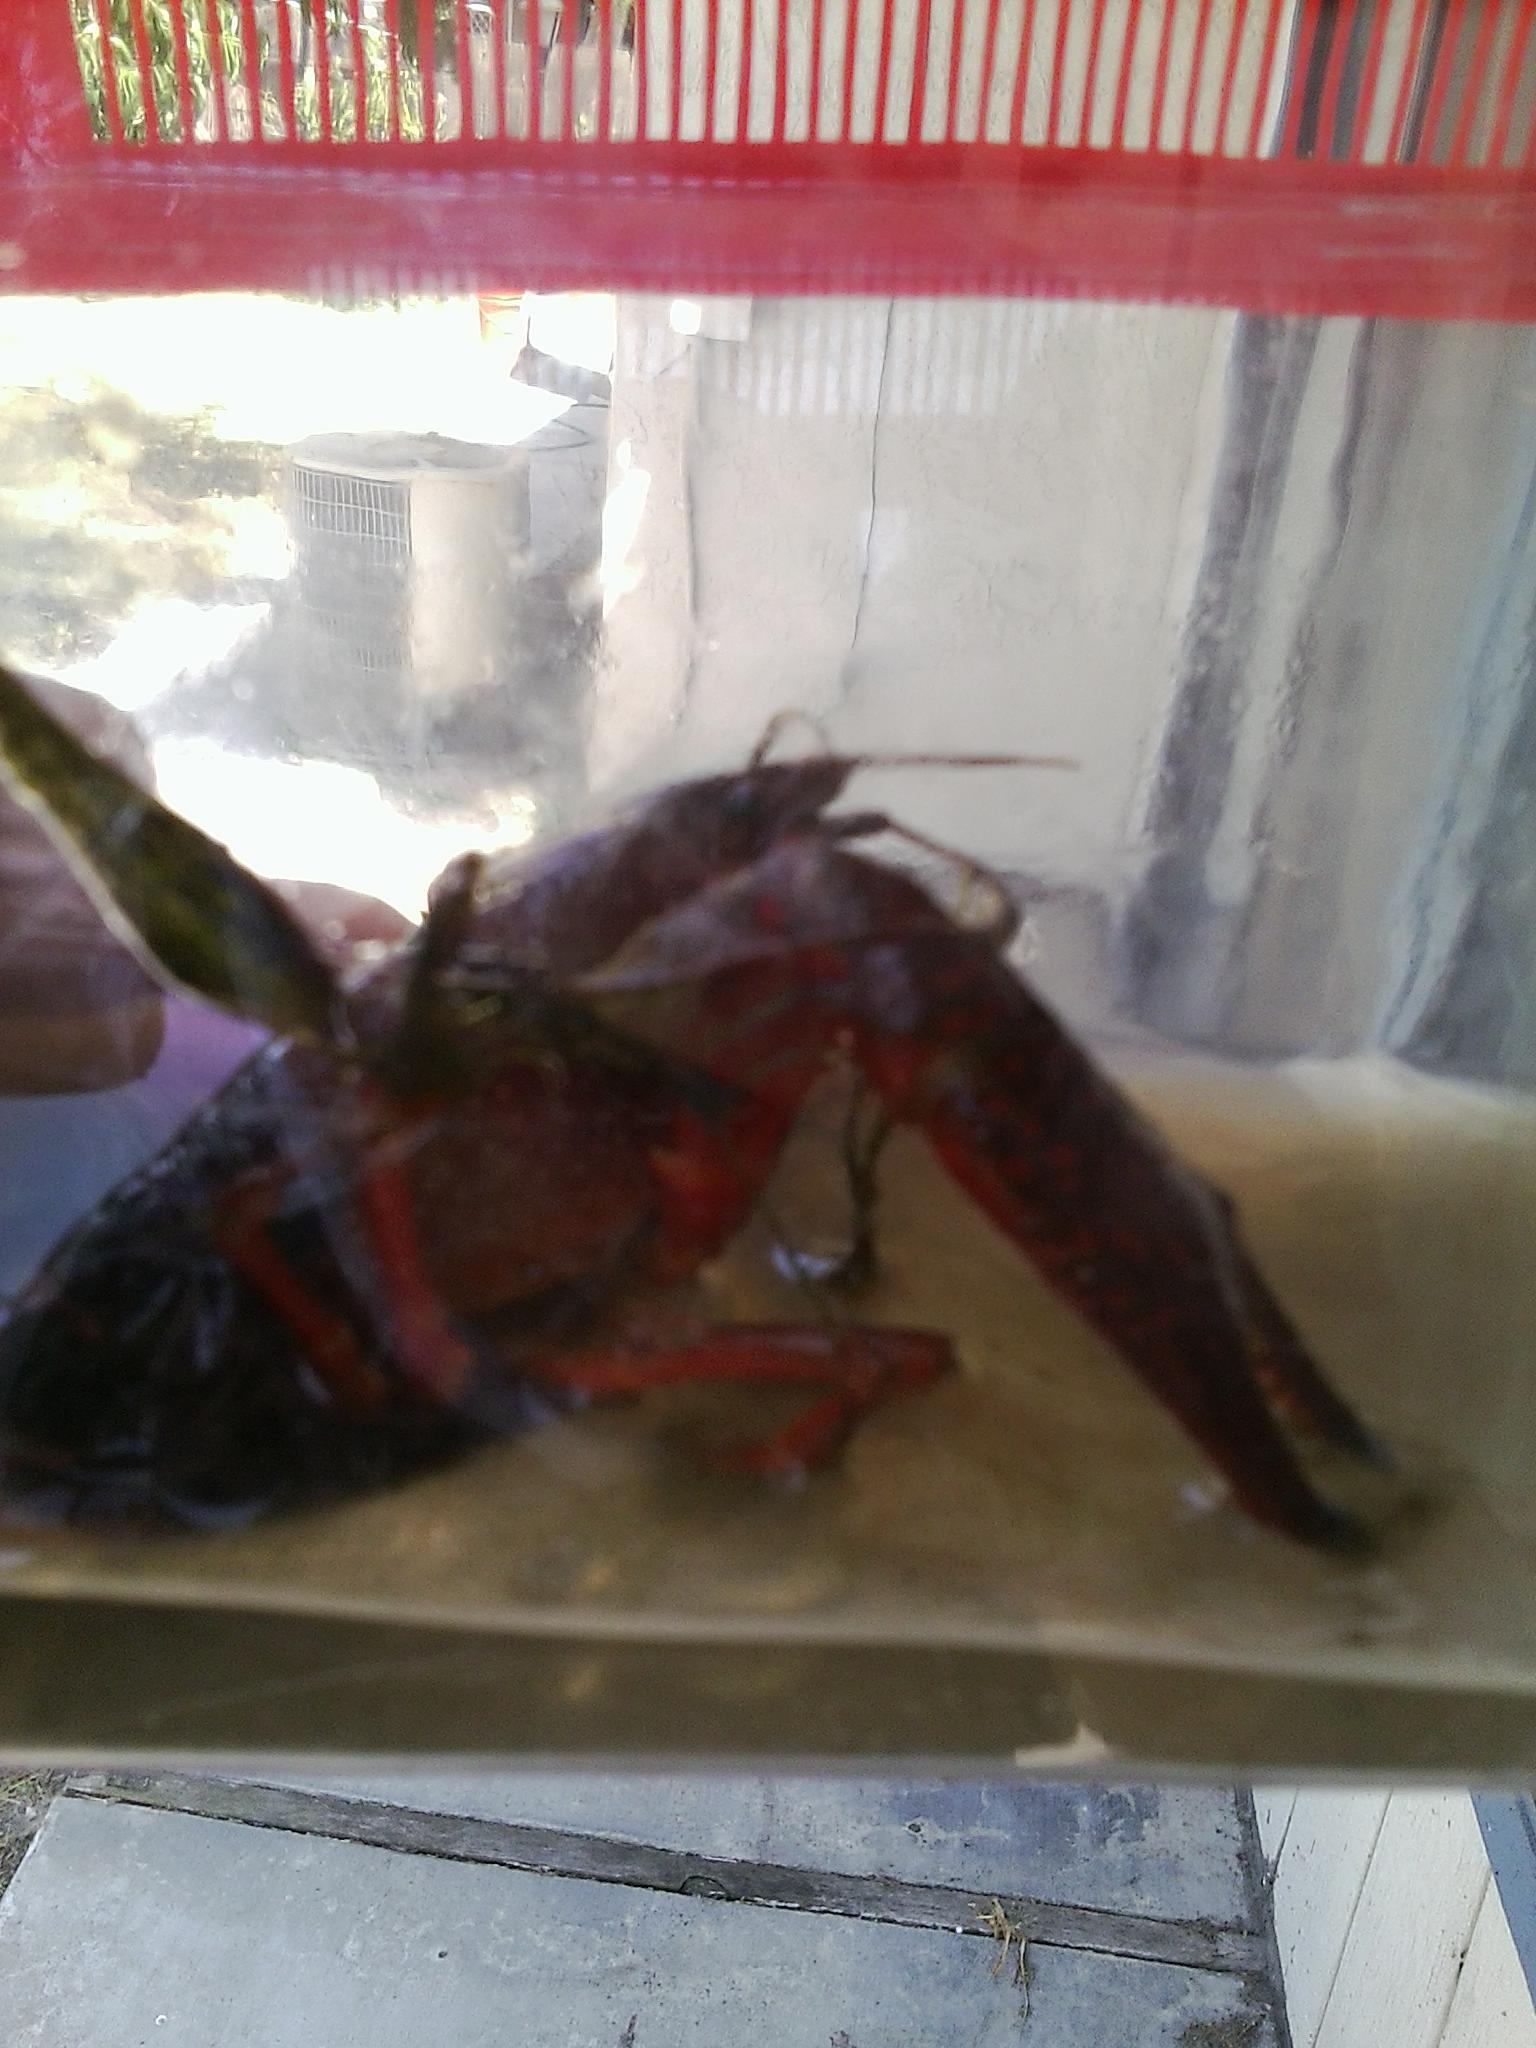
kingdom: Animalia
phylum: Arthropoda
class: Malacostraca
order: Decapoda
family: Cambaridae
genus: Procambarus
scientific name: Procambarus clarkii
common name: Red swamp crayfish
